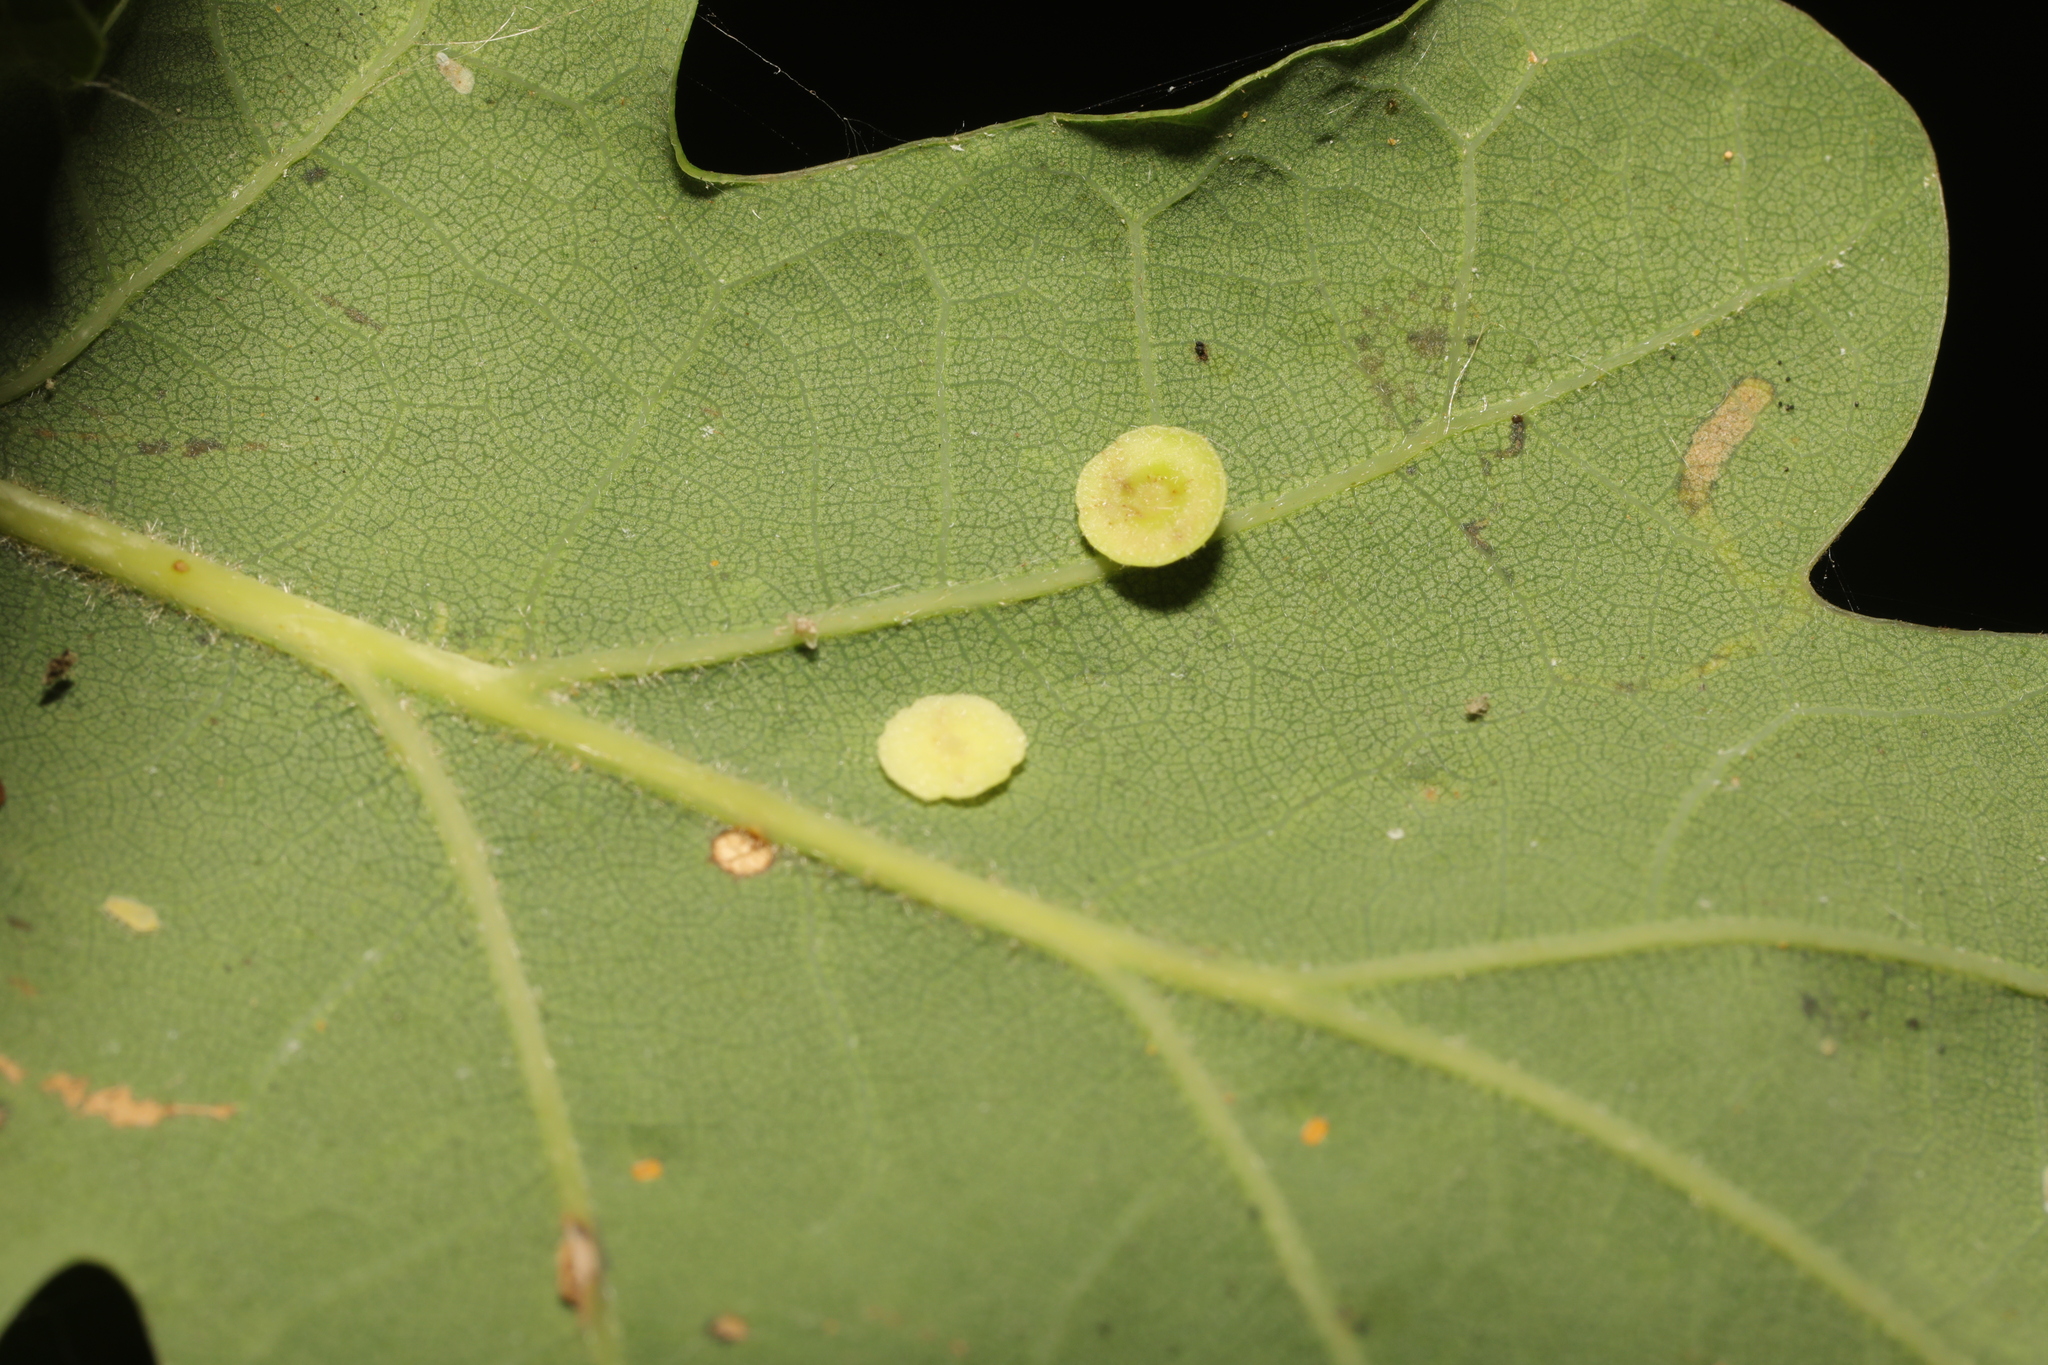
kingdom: Animalia
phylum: Arthropoda
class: Insecta
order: Hymenoptera
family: Cynipidae
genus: Neuroterus
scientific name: Neuroterus albipes
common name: Smooth spangle gall
